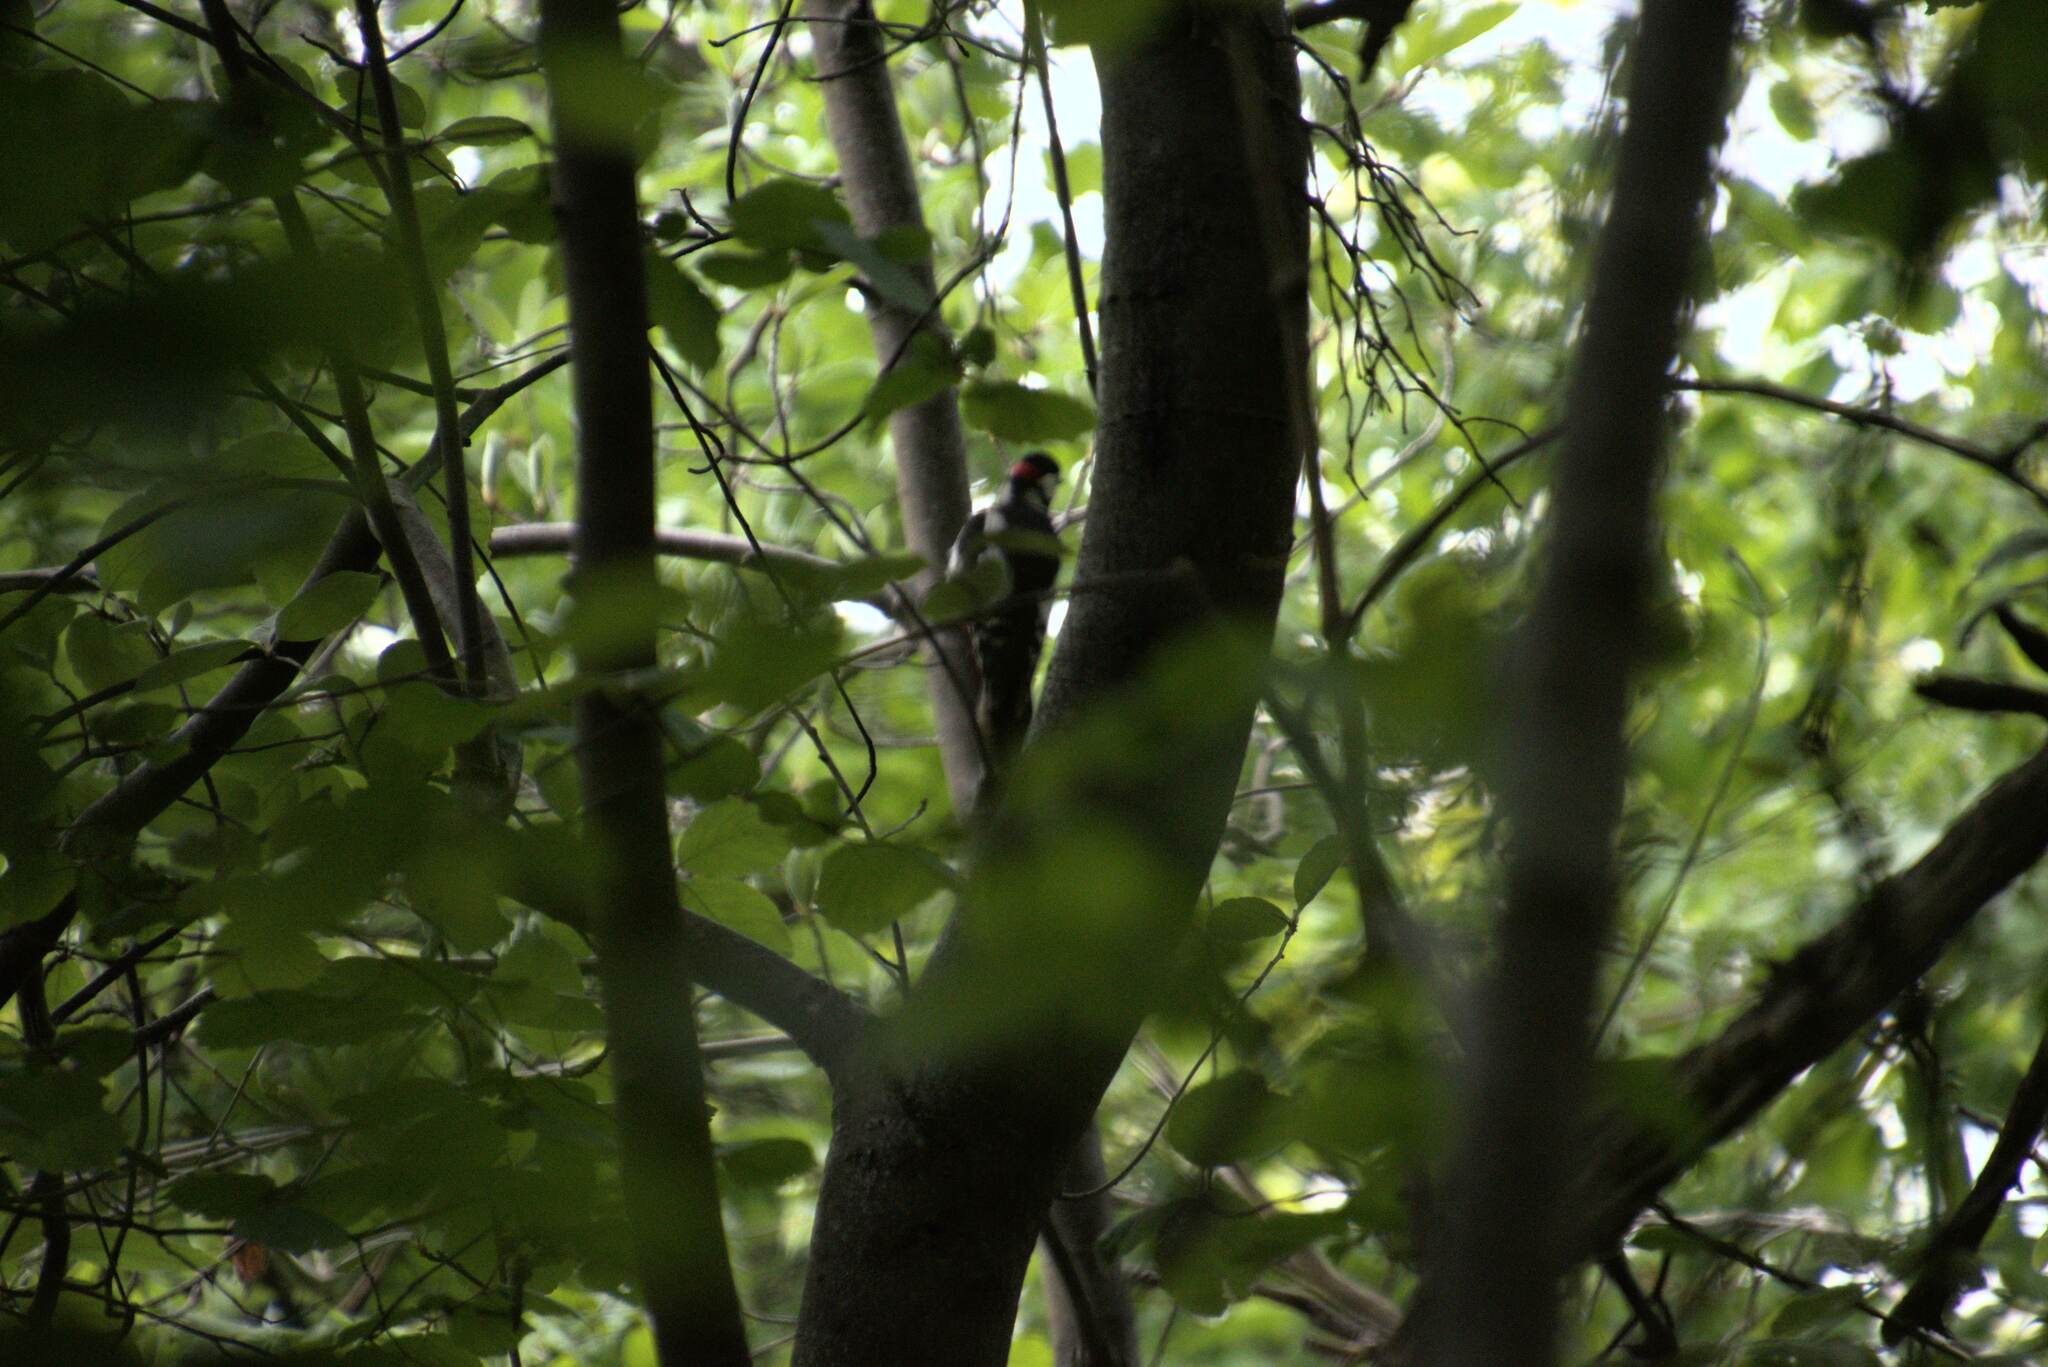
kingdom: Animalia
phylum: Chordata
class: Aves
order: Piciformes
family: Picidae
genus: Dendrocopos
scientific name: Dendrocopos major
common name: Great spotted woodpecker
